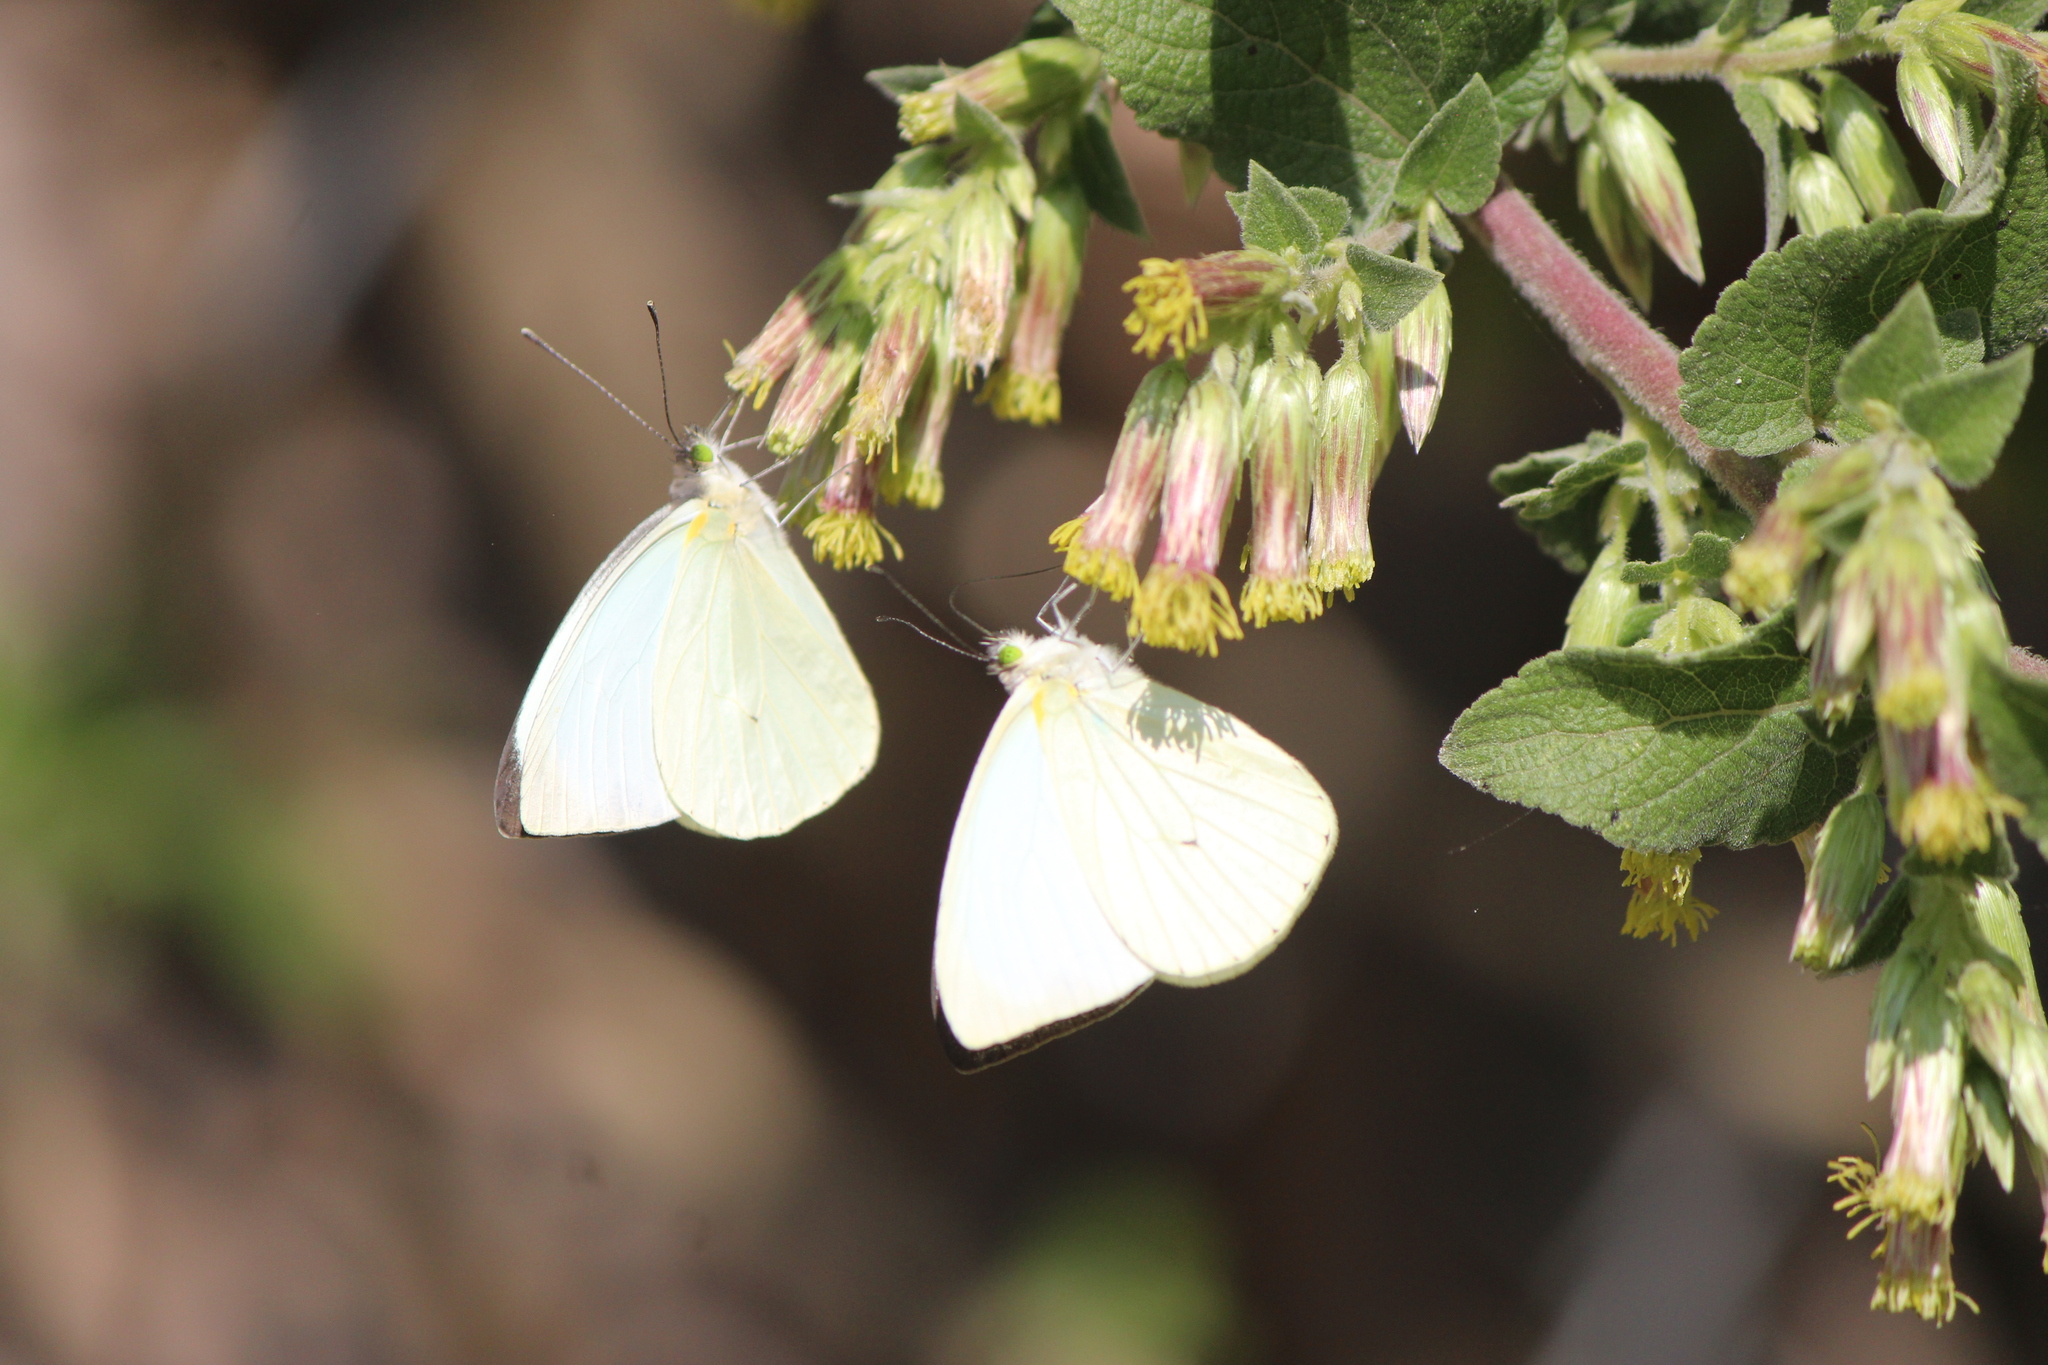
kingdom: Animalia
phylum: Arthropoda
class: Insecta
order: Lepidoptera
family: Pieridae
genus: Leptophobia
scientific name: Leptophobia aripa
